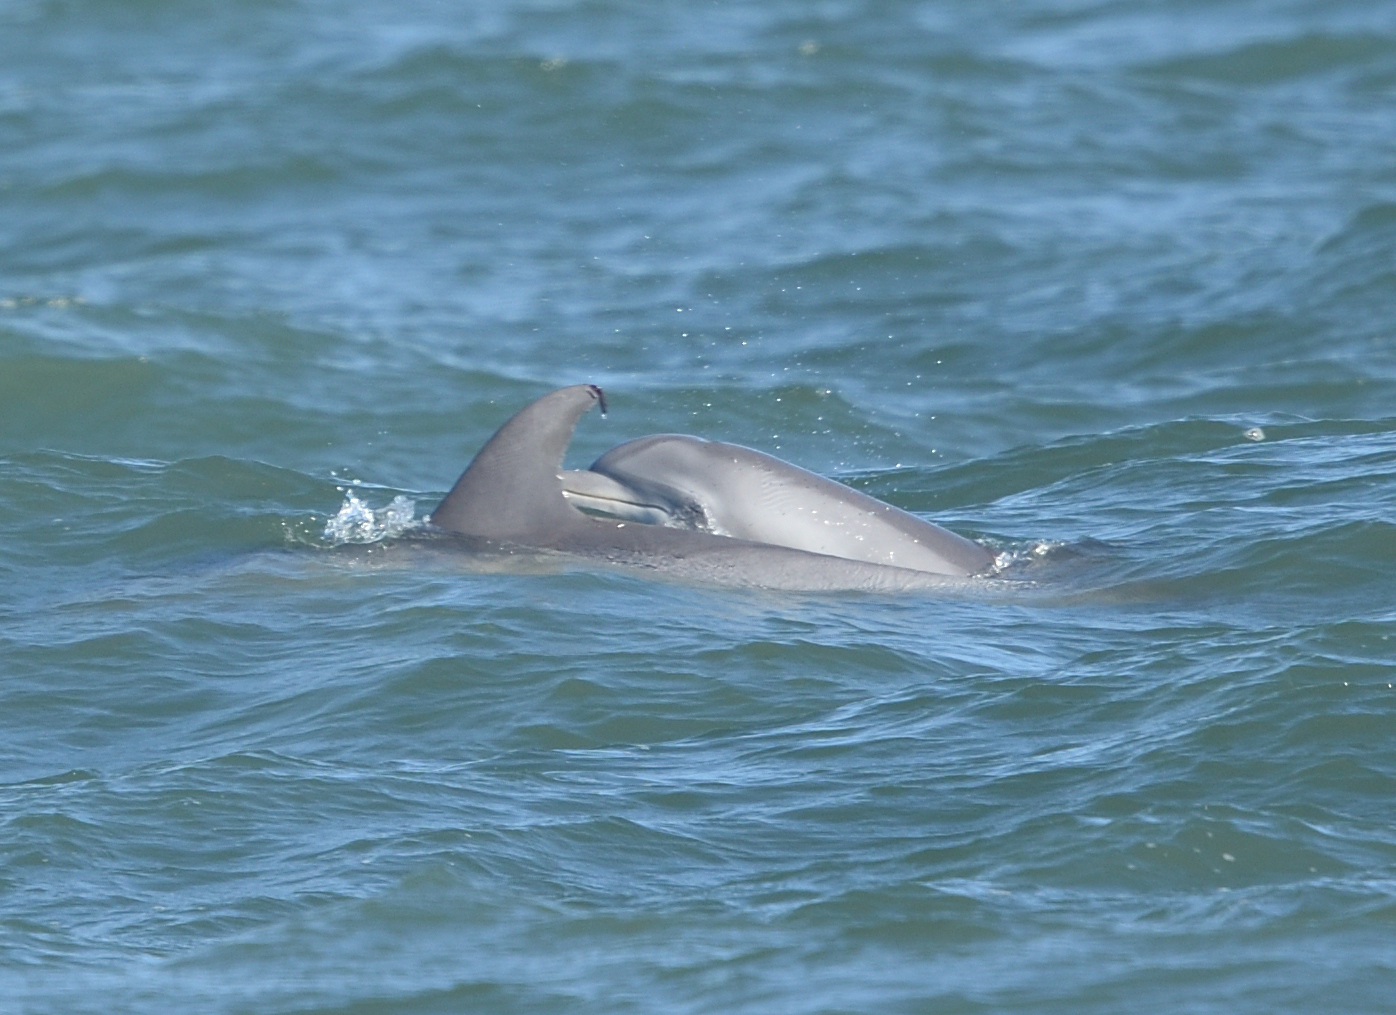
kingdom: Animalia
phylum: Chordata
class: Mammalia
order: Cetacea
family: Delphinidae
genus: Tursiops
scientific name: Tursiops truncatus
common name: Bottlenose dolphin
